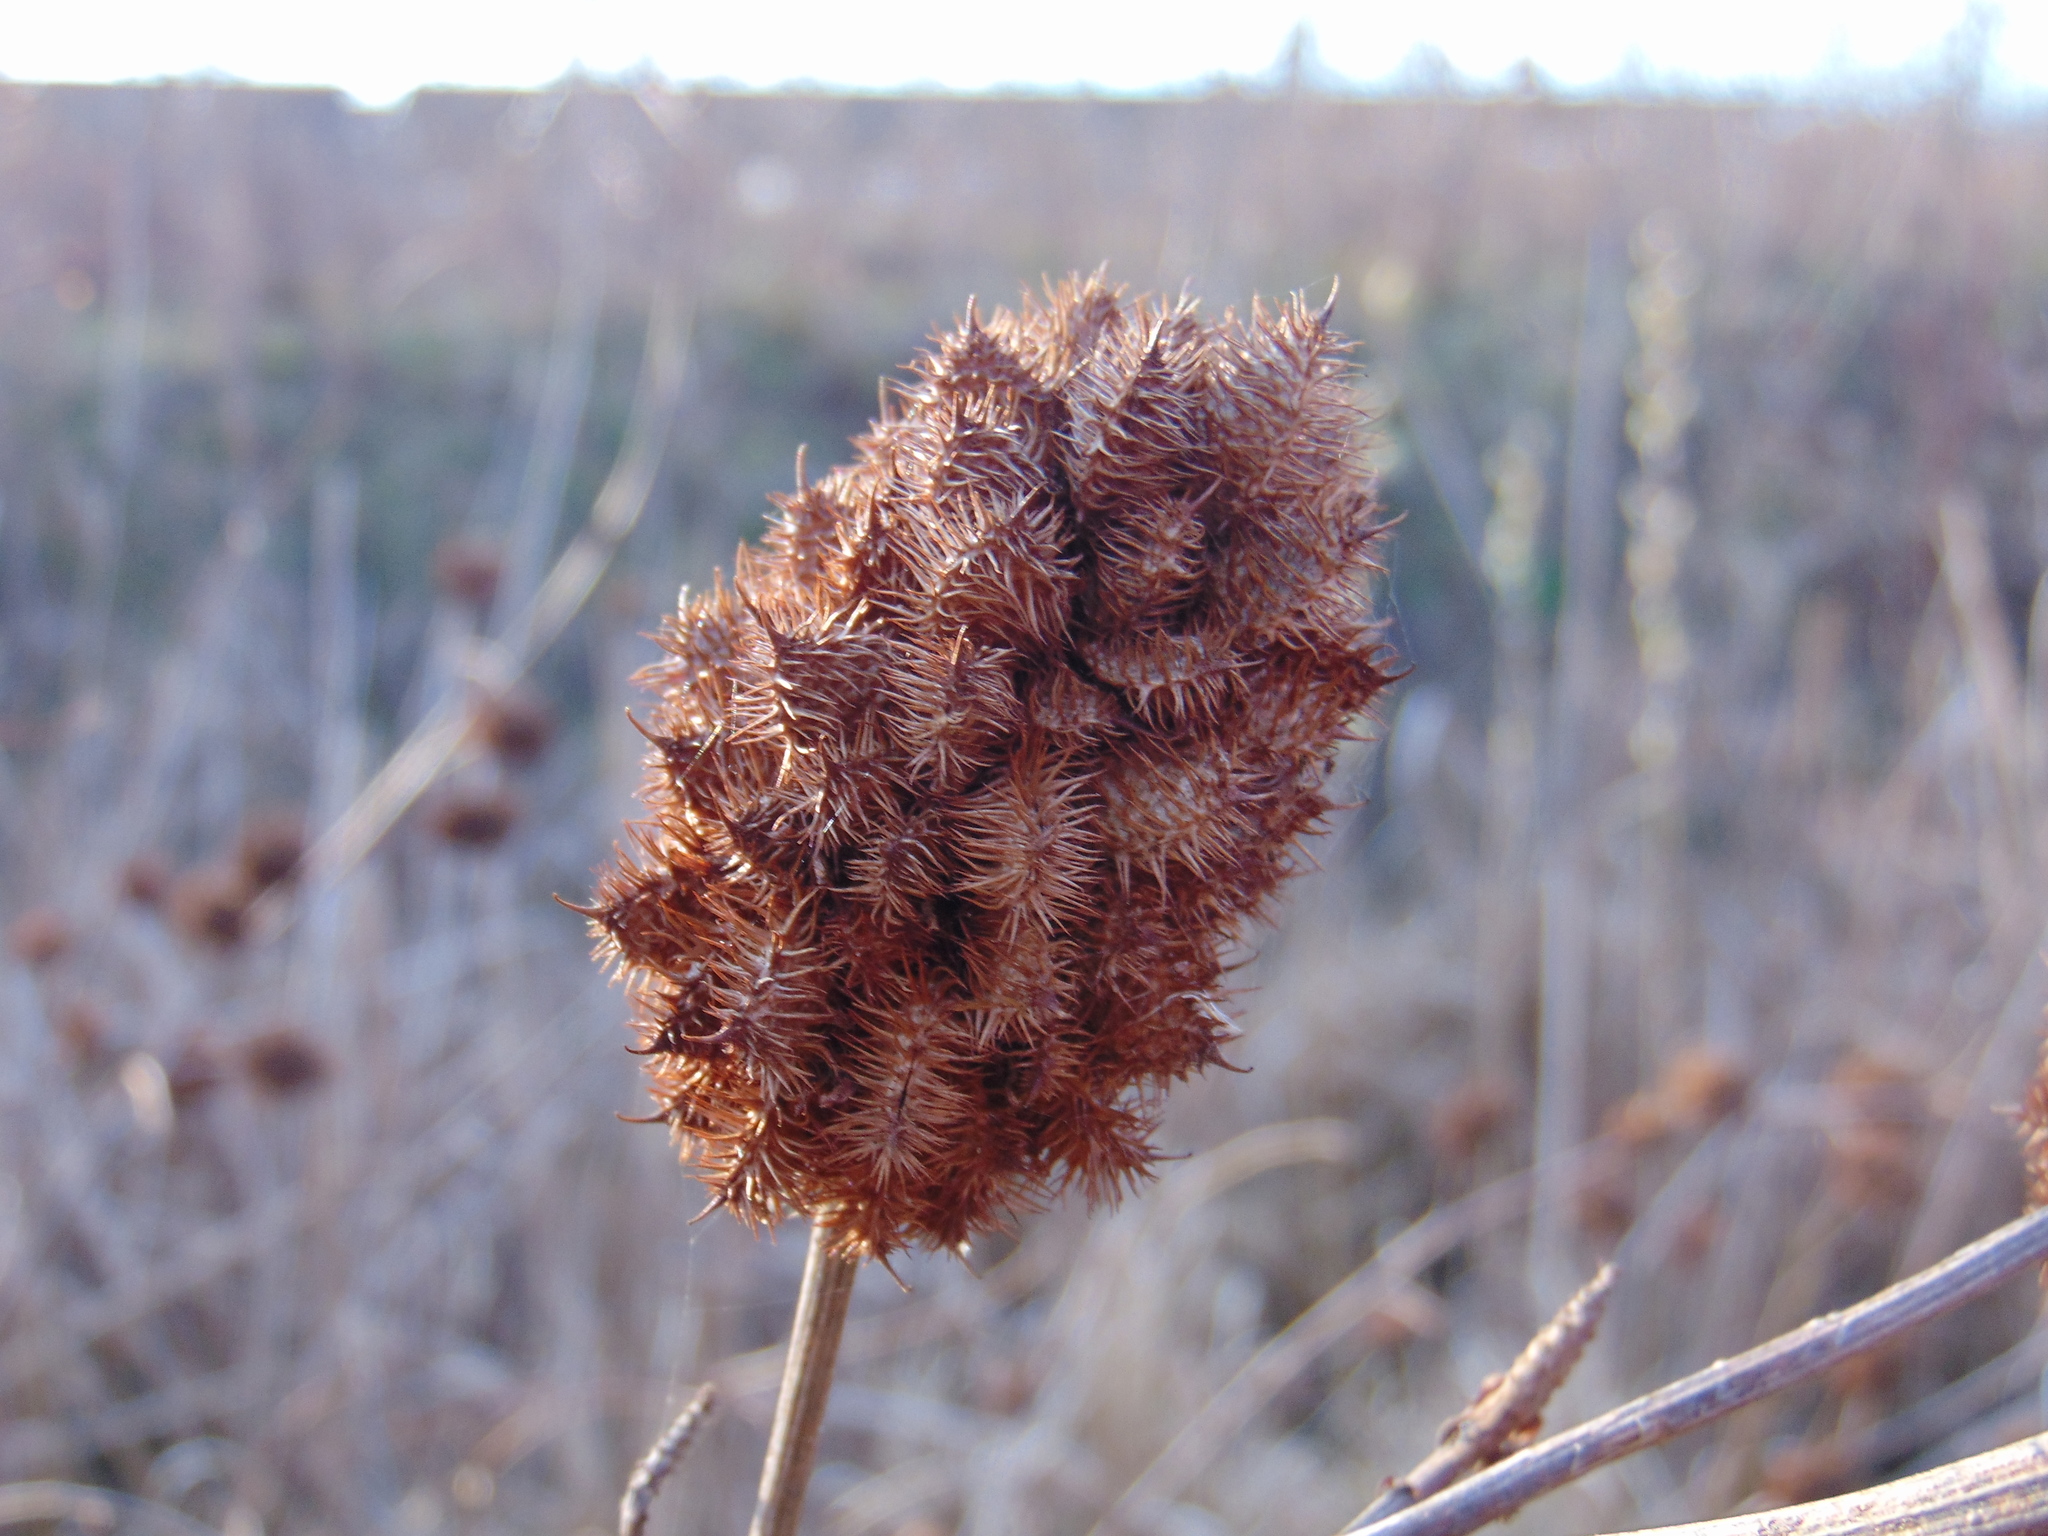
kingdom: Plantae
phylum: Tracheophyta
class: Magnoliopsida
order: Fabales
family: Fabaceae
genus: Glycyrrhiza
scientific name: Glycyrrhiza echinata
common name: German liquorice
